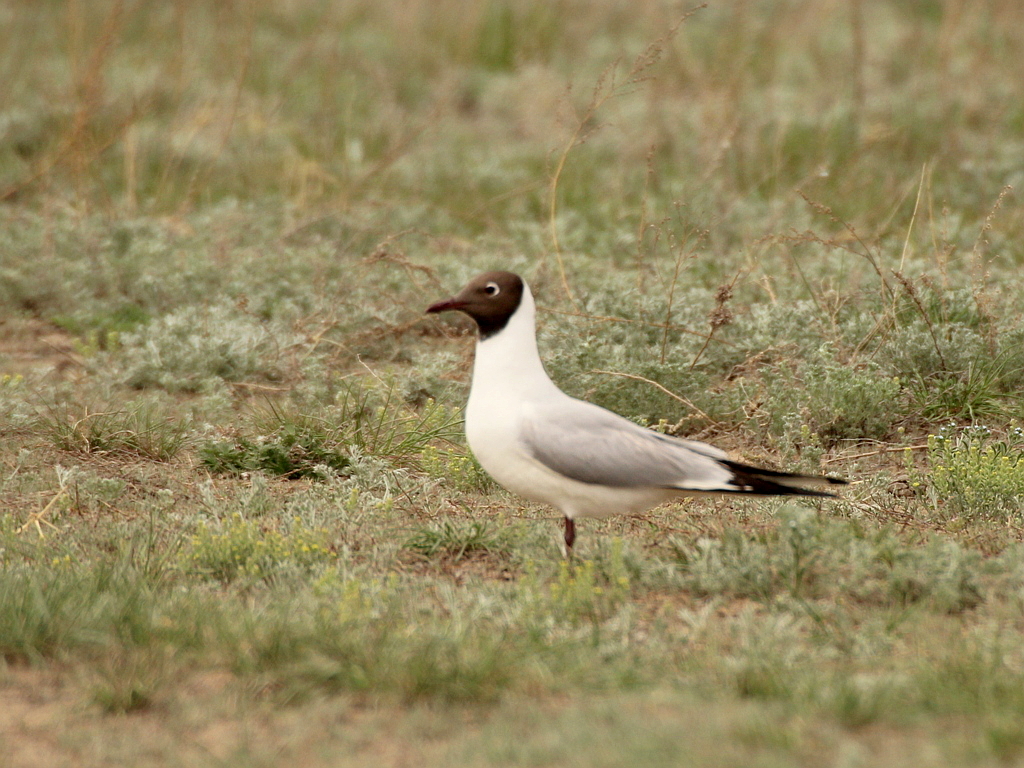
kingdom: Animalia
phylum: Chordata
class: Aves
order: Charadriiformes
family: Laridae
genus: Chroicocephalus
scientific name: Chroicocephalus ridibundus
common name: Black-headed gull
